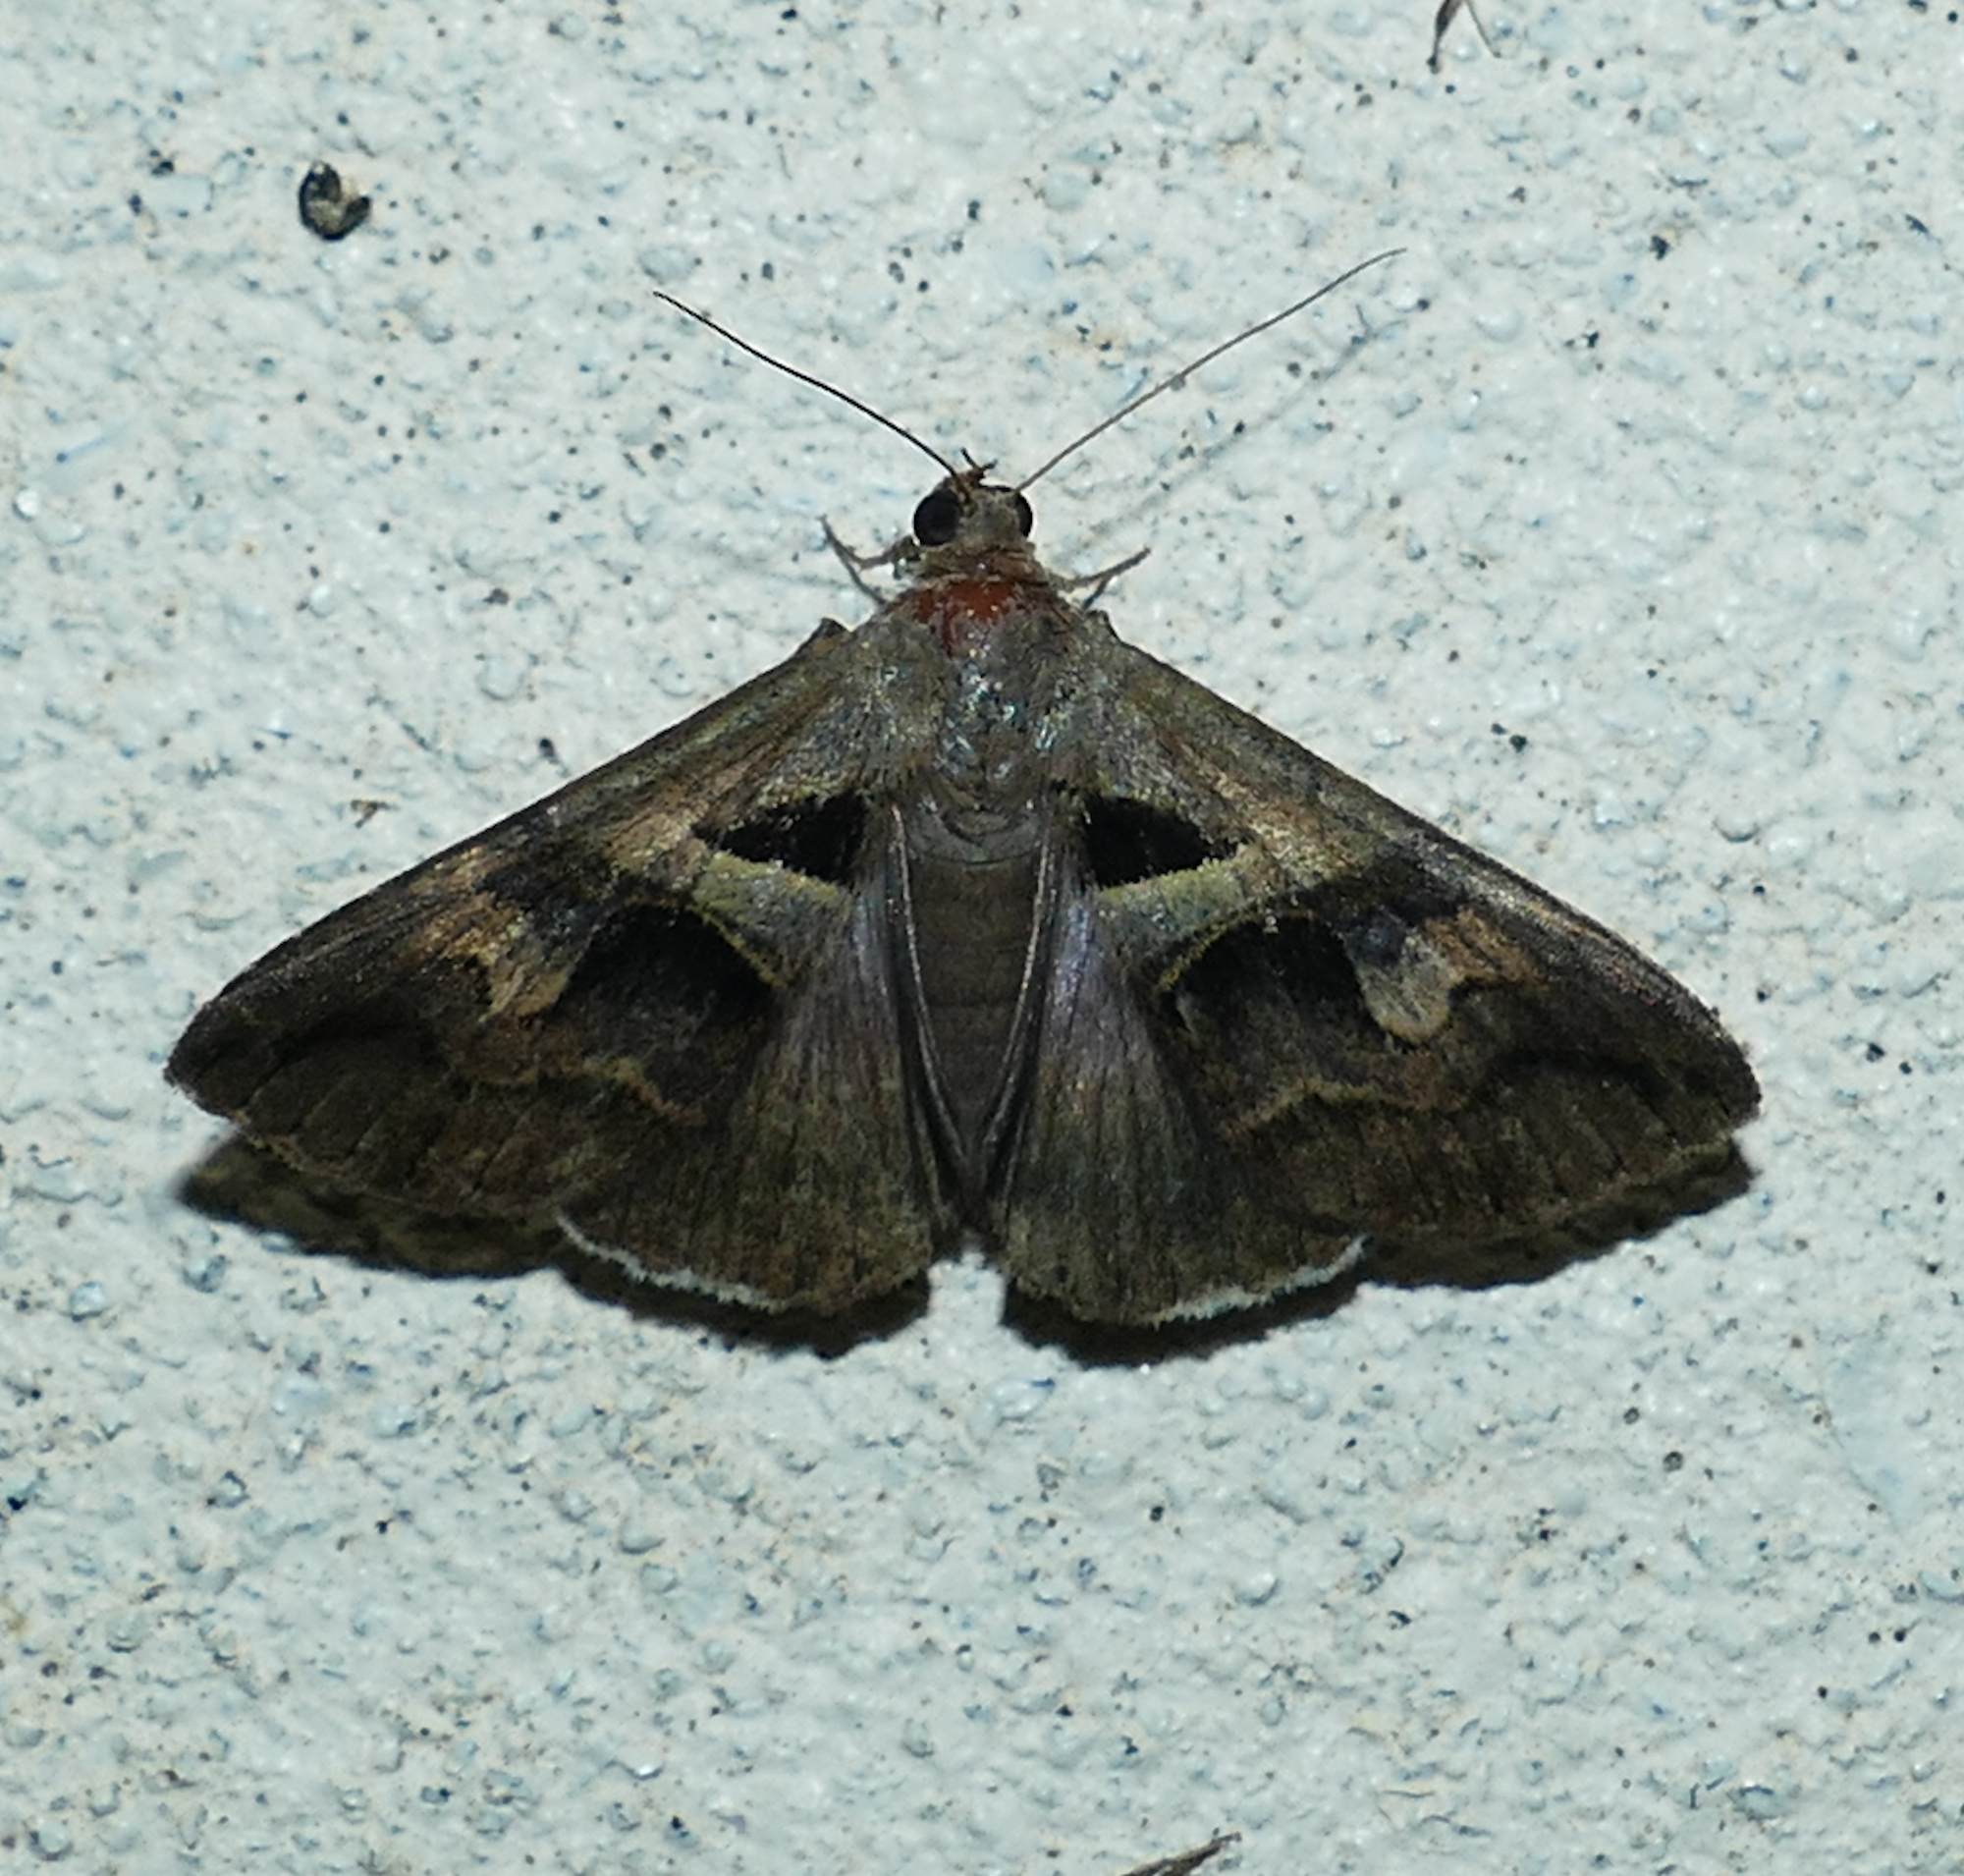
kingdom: Animalia
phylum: Arthropoda
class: Insecta
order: Lepidoptera
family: Erebidae
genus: Melipotis
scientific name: Melipotis cellaris
